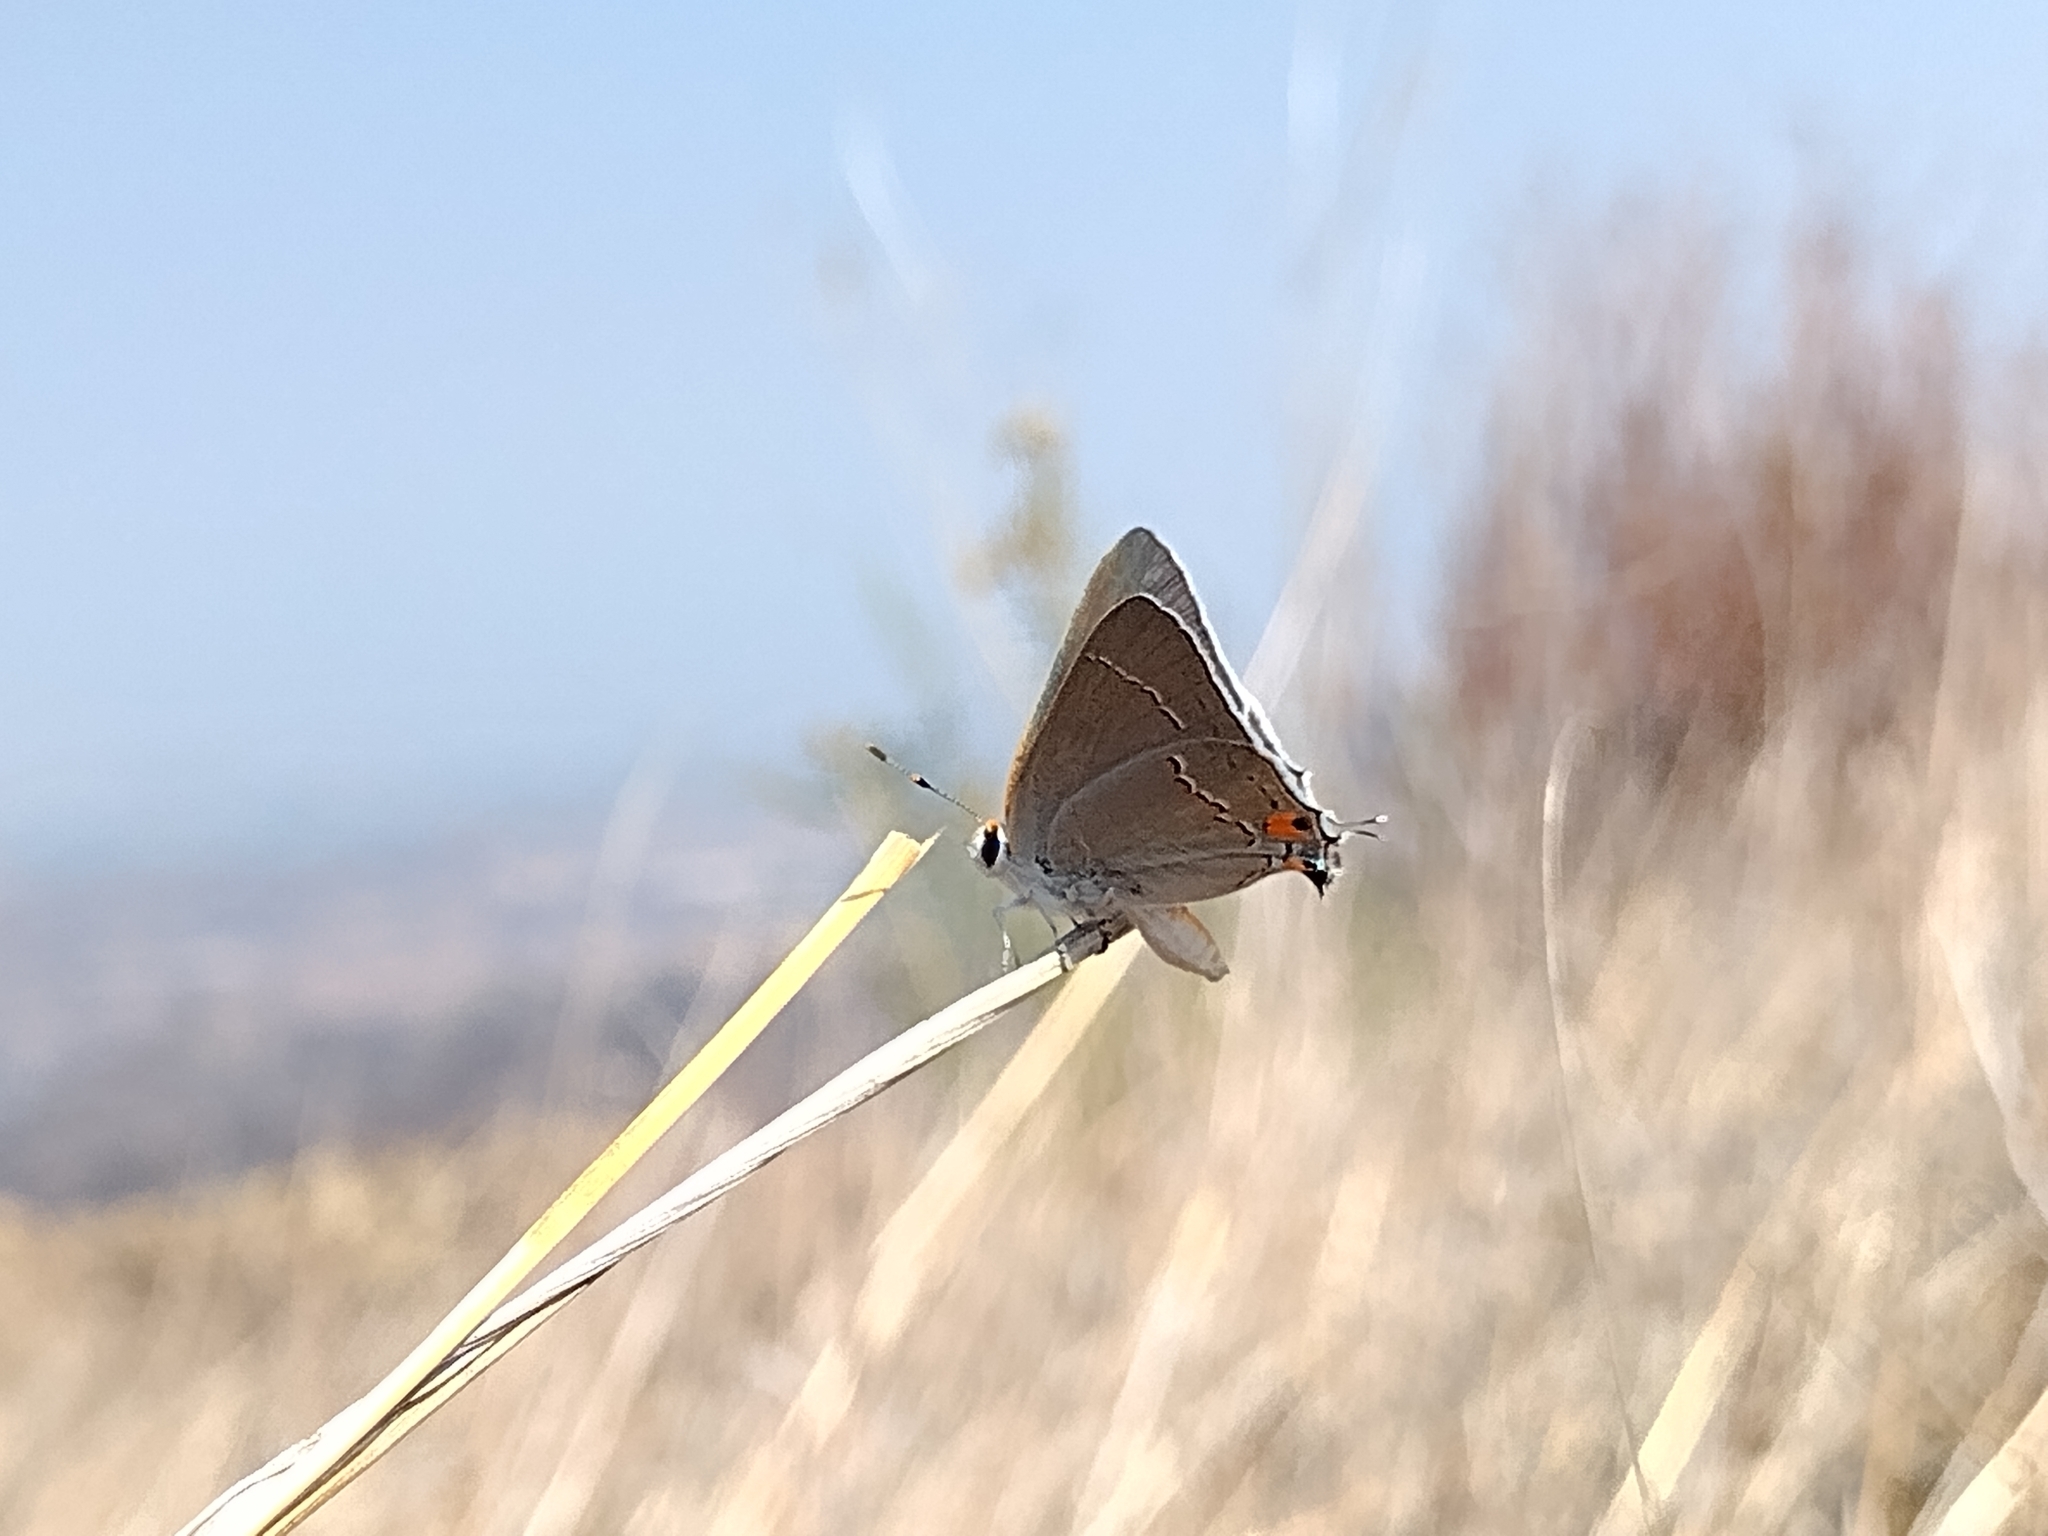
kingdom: Animalia
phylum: Arthropoda
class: Insecta
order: Lepidoptera
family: Lycaenidae
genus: Strymon
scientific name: Strymon melinus
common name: Gray hairstreak
